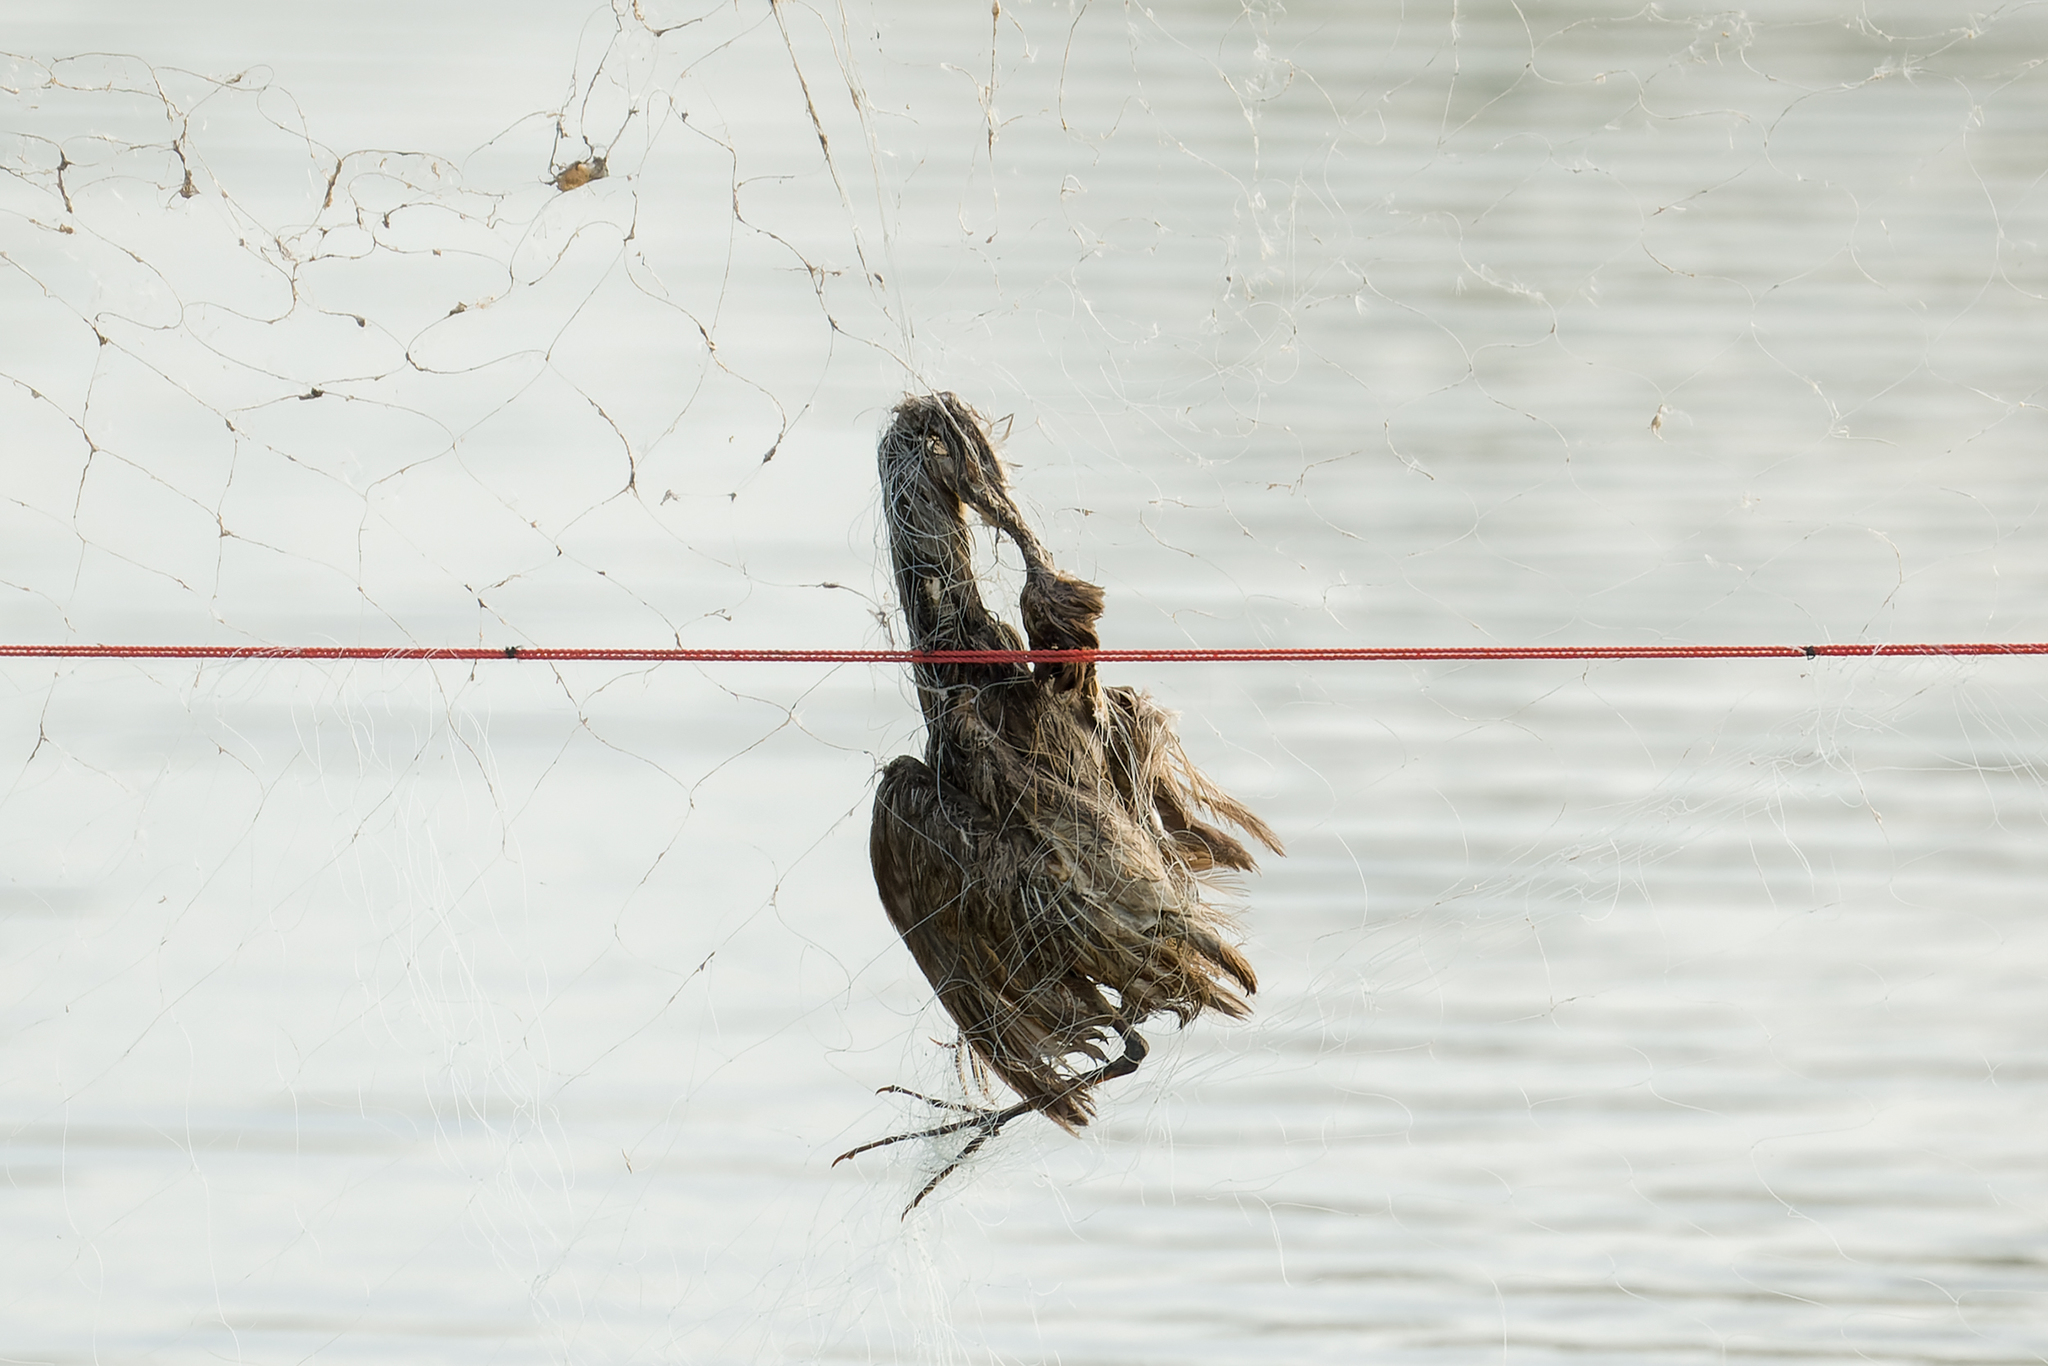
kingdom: Animalia
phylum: Chordata
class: Aves
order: Pelecaniformes
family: Ardeidae
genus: Ixobrychus
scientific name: Ixobrychus cinnamomeus
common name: Cinnamon bittern
